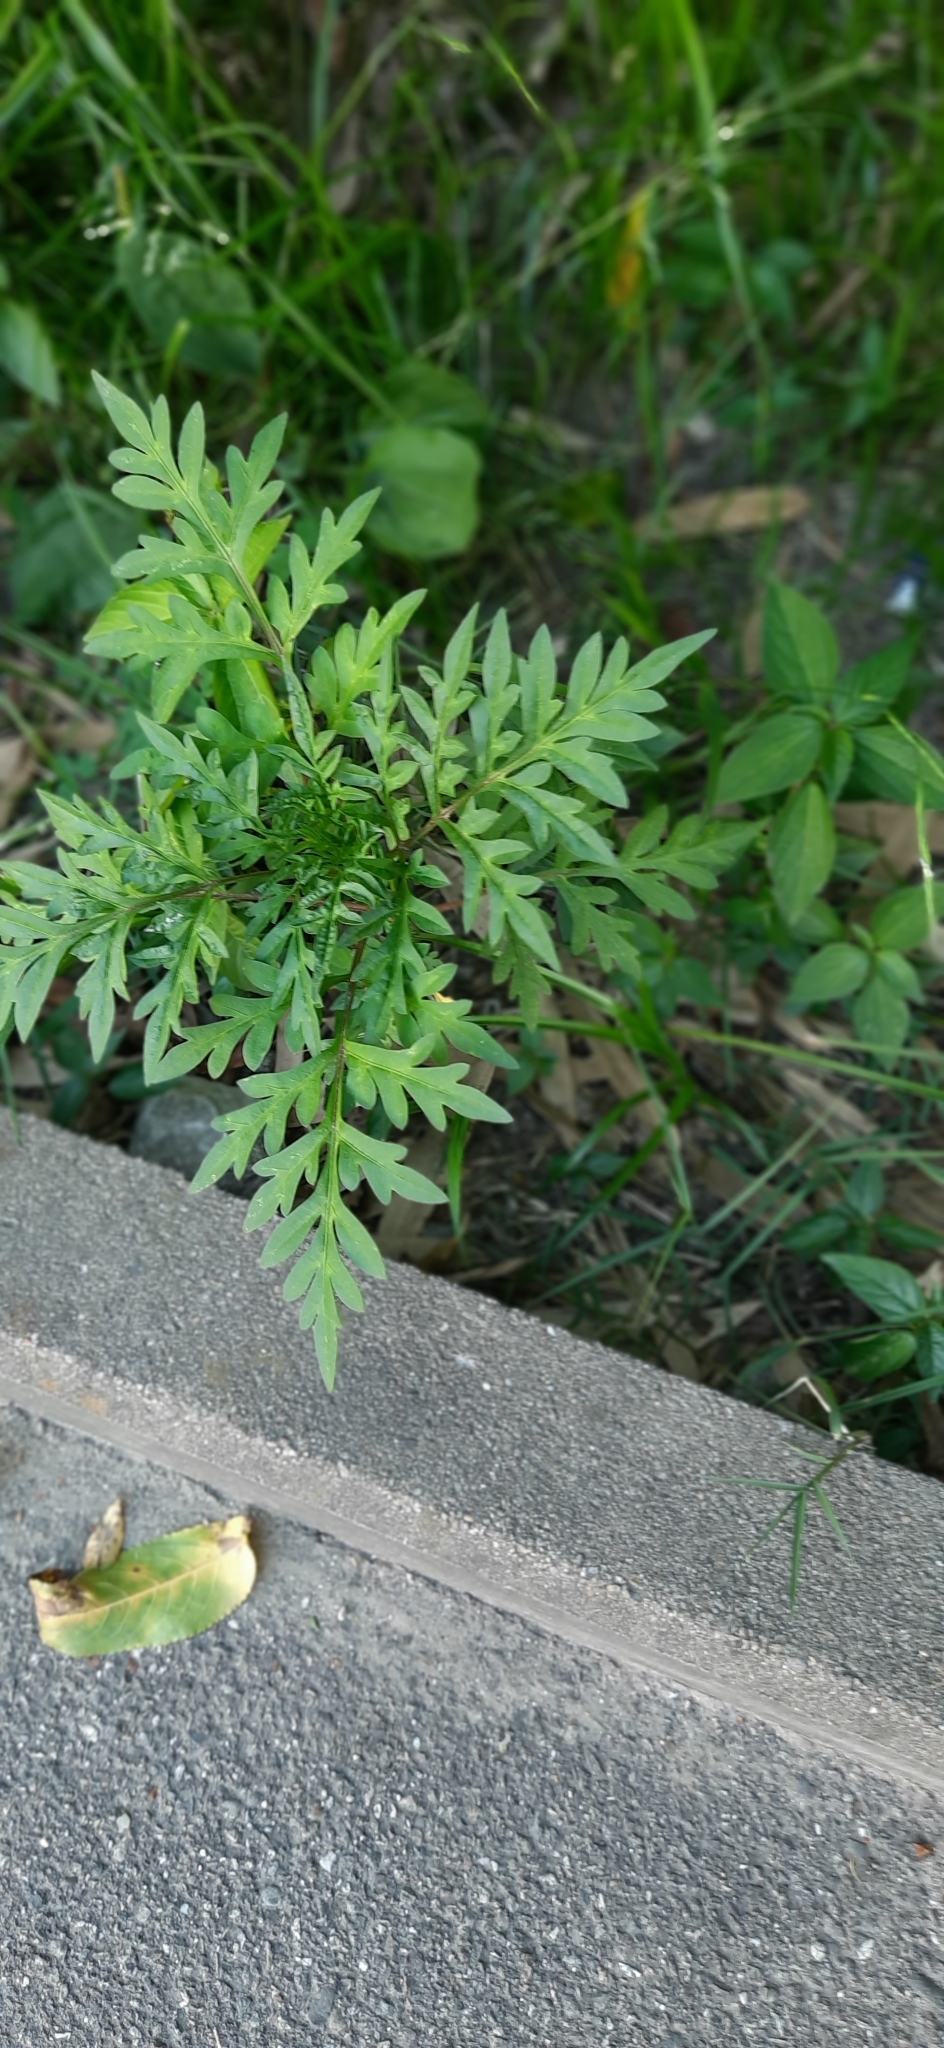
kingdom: Plantae
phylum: Tracheophyta
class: Magnoliopsida
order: Asterales
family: Asteraceae
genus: Ambrosia
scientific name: Ambrosia artemisiifolia
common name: Annual ragweed
